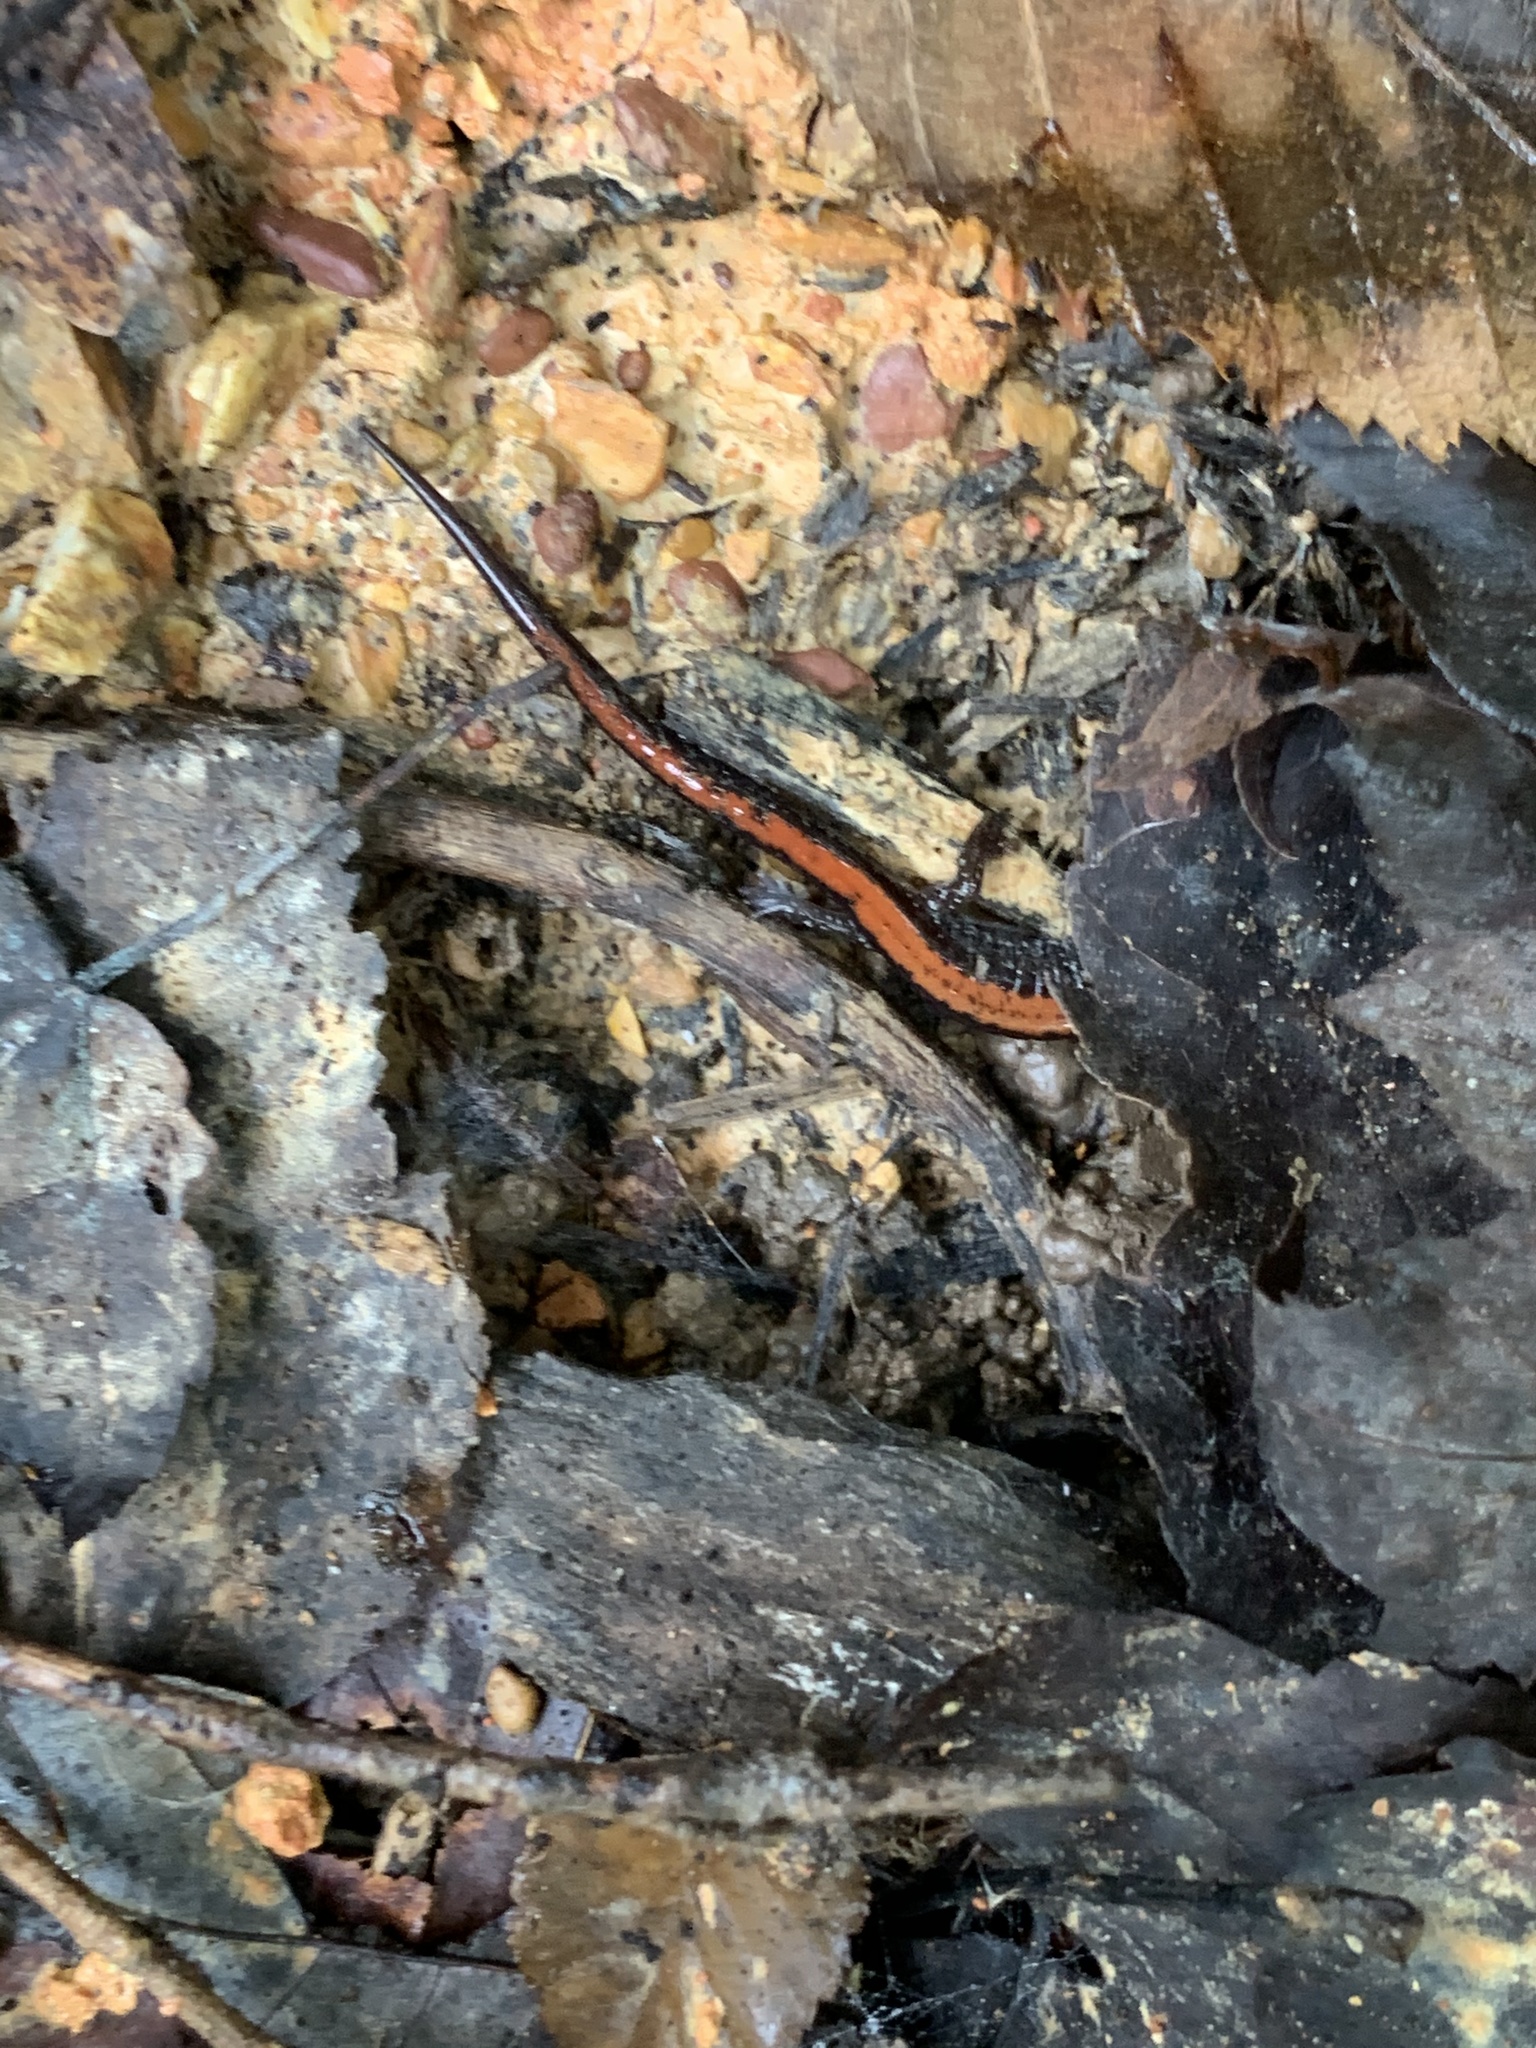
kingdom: Animalia
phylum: Chordata
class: Amphibia
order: Caudata
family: Plethodontidae
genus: Plethodon
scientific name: Plethodon cinereus
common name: Redback salamander
